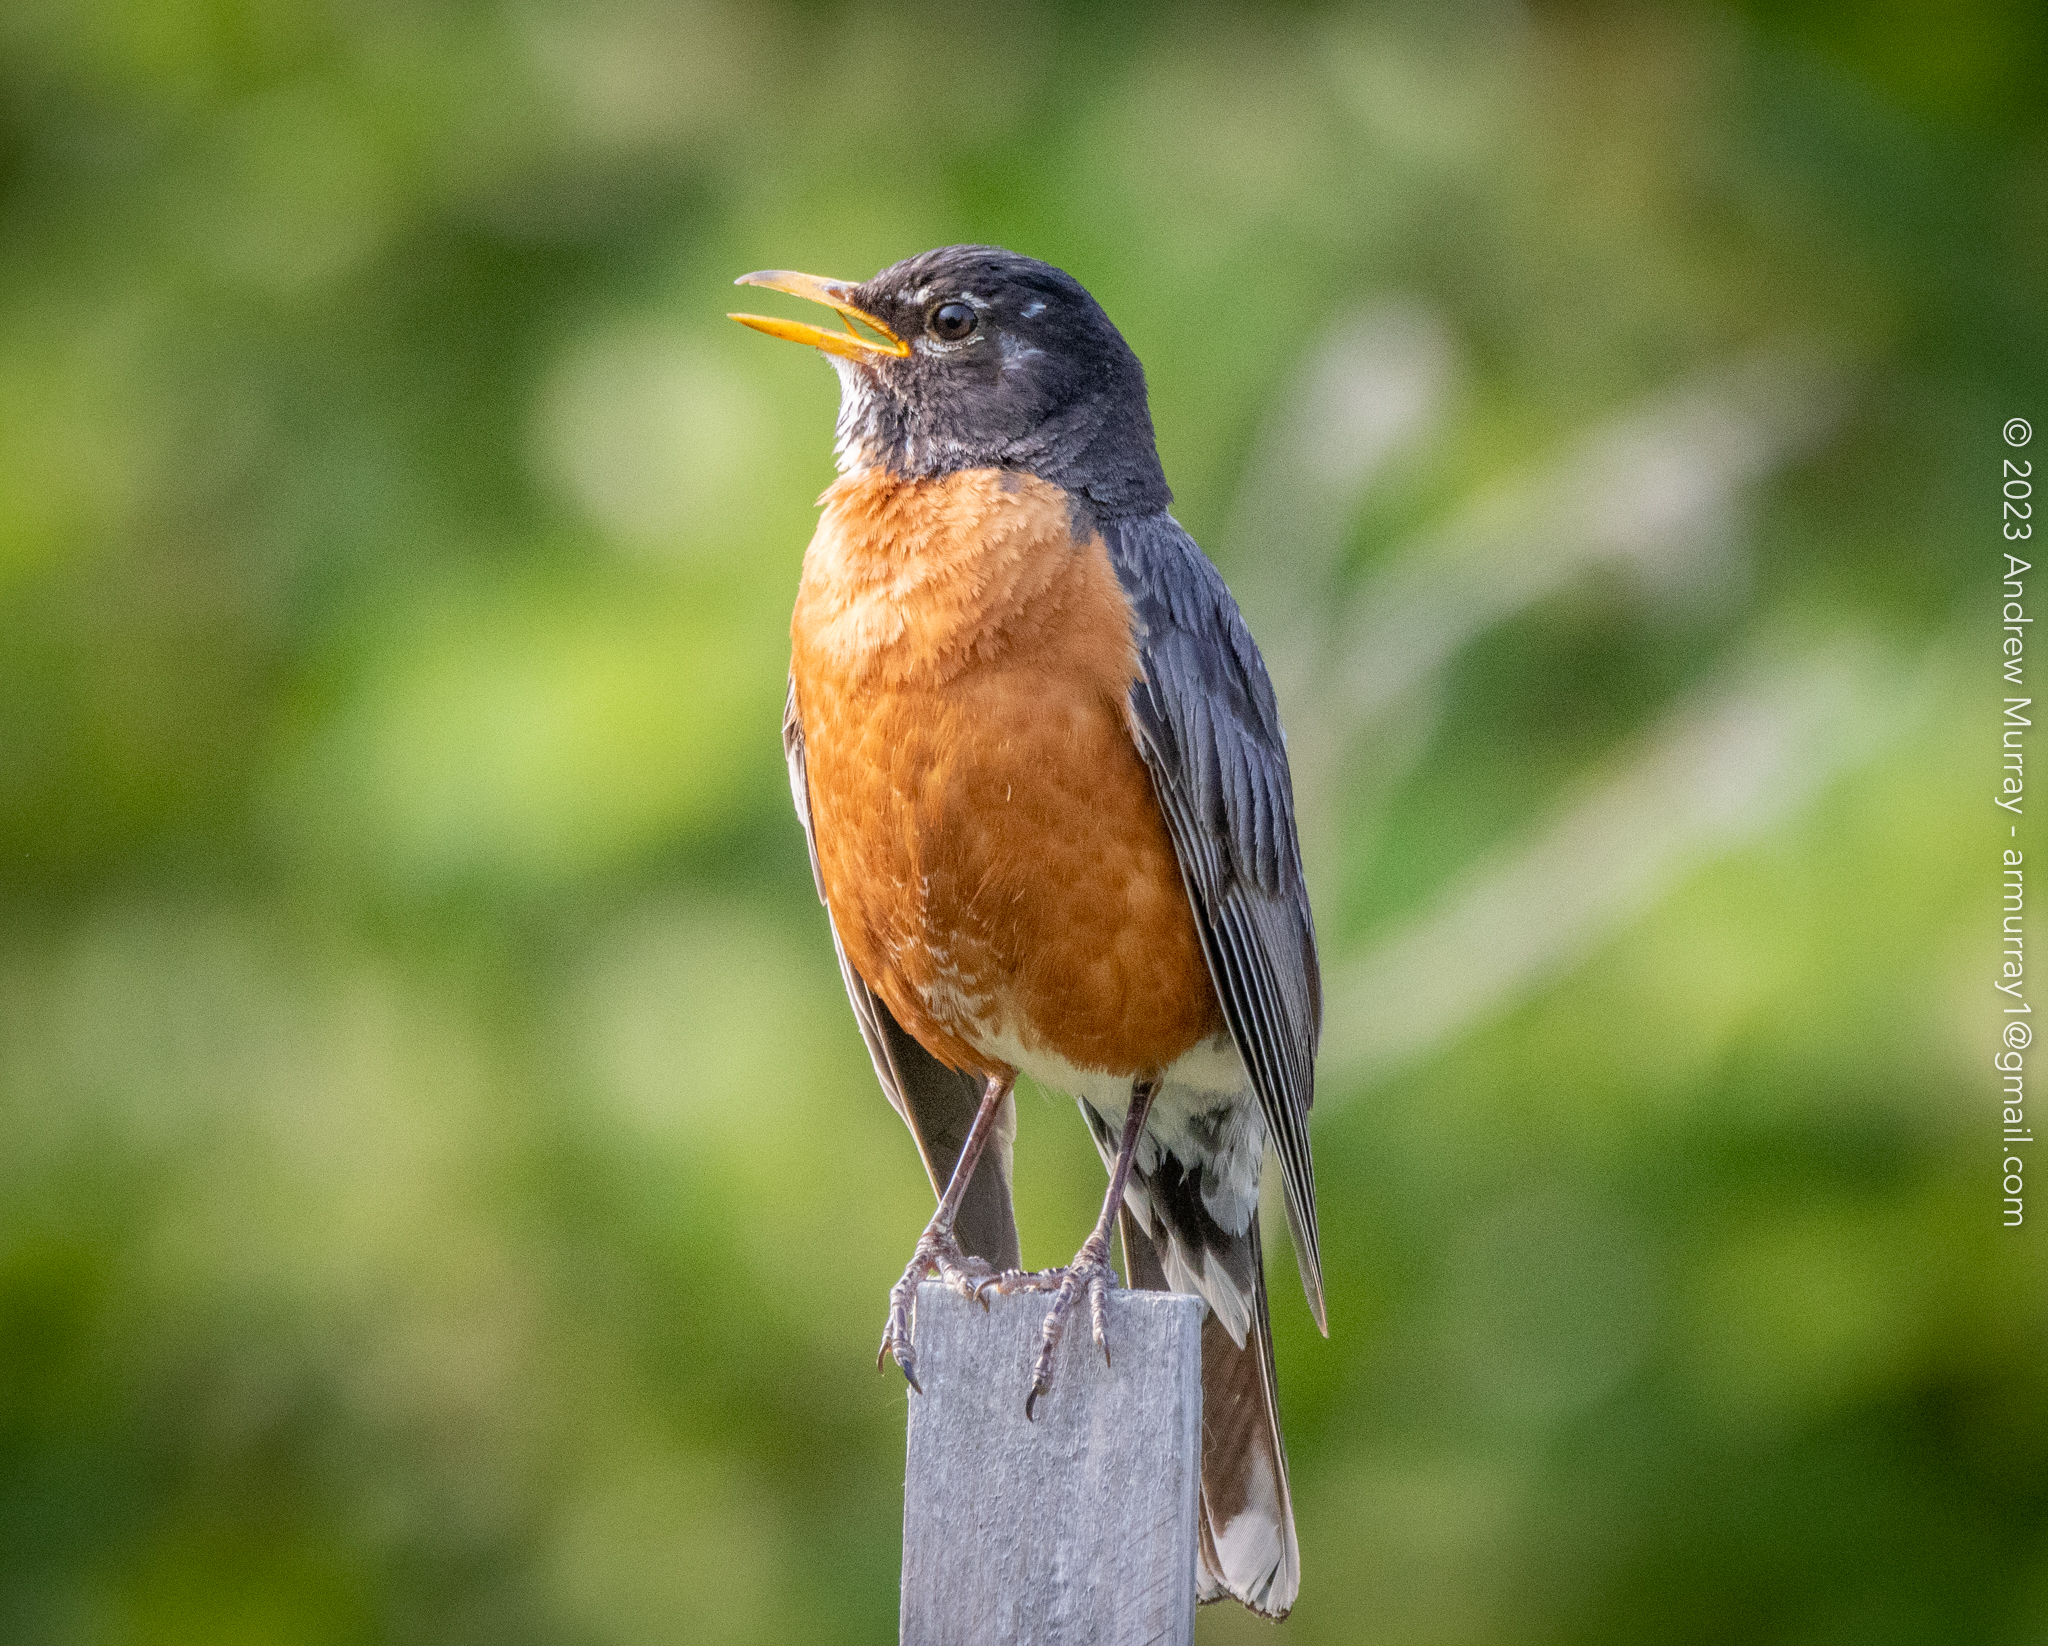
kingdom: Animalia
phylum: Chordata
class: Aves
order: Passeriformes
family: Turdidae
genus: Turdus
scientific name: Turdus migratorius
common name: American robin
